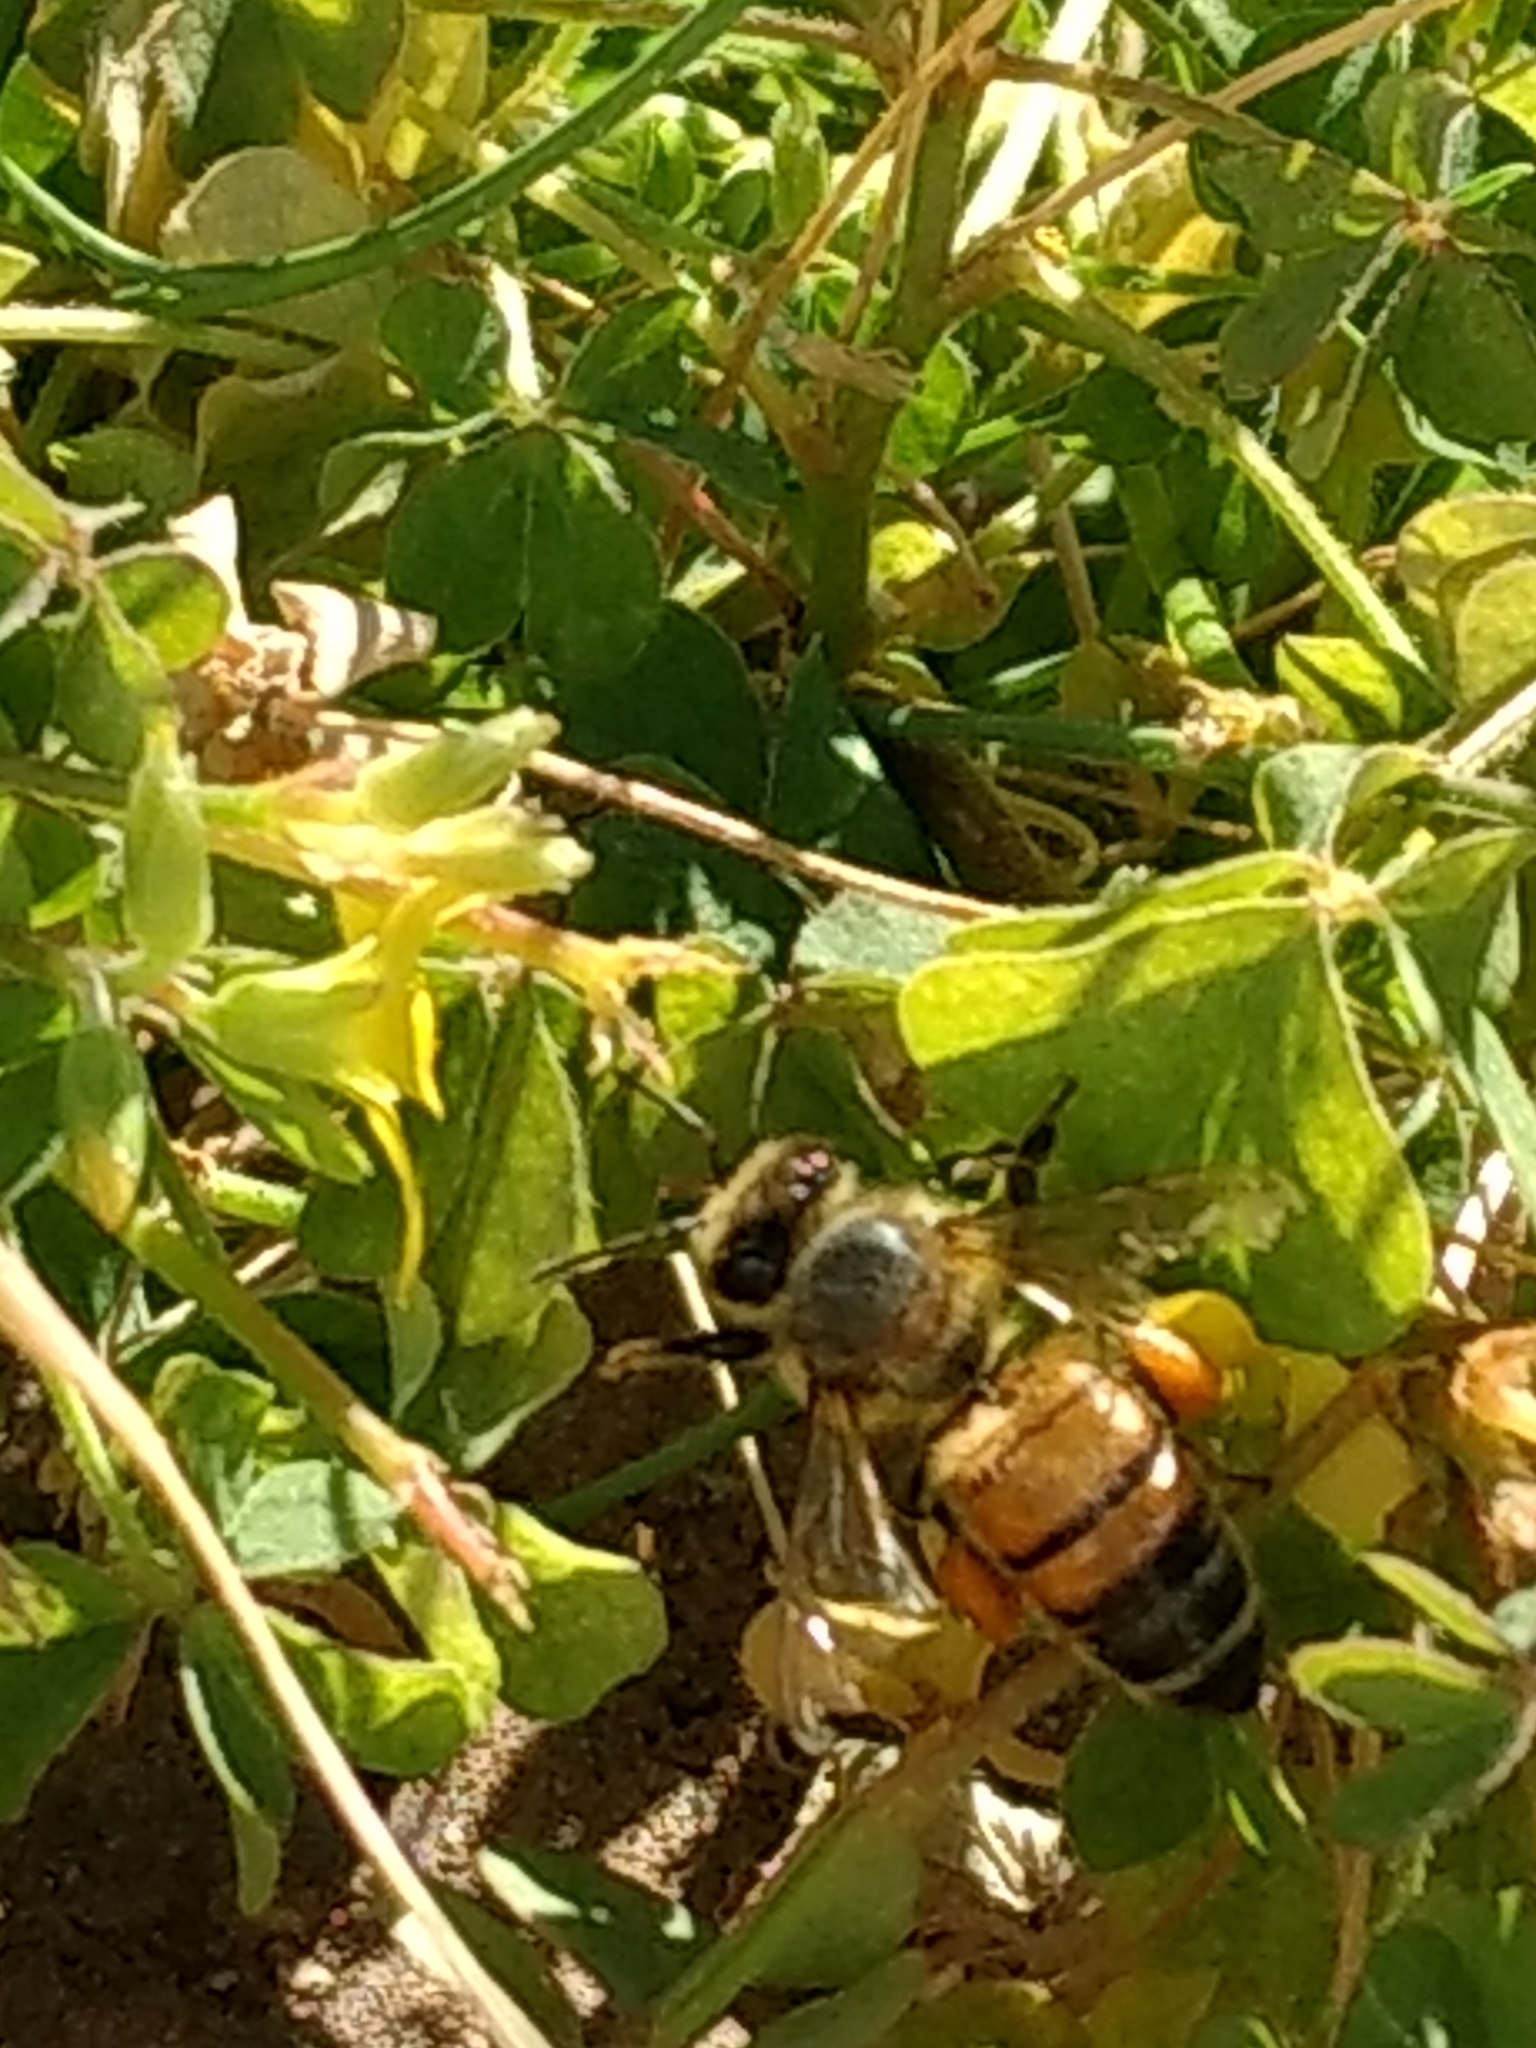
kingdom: Animalia
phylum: Arthropoda
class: Insecta
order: Hymenoptera
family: Apidae
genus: Apis
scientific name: Apis mellifera
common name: Honey bee
